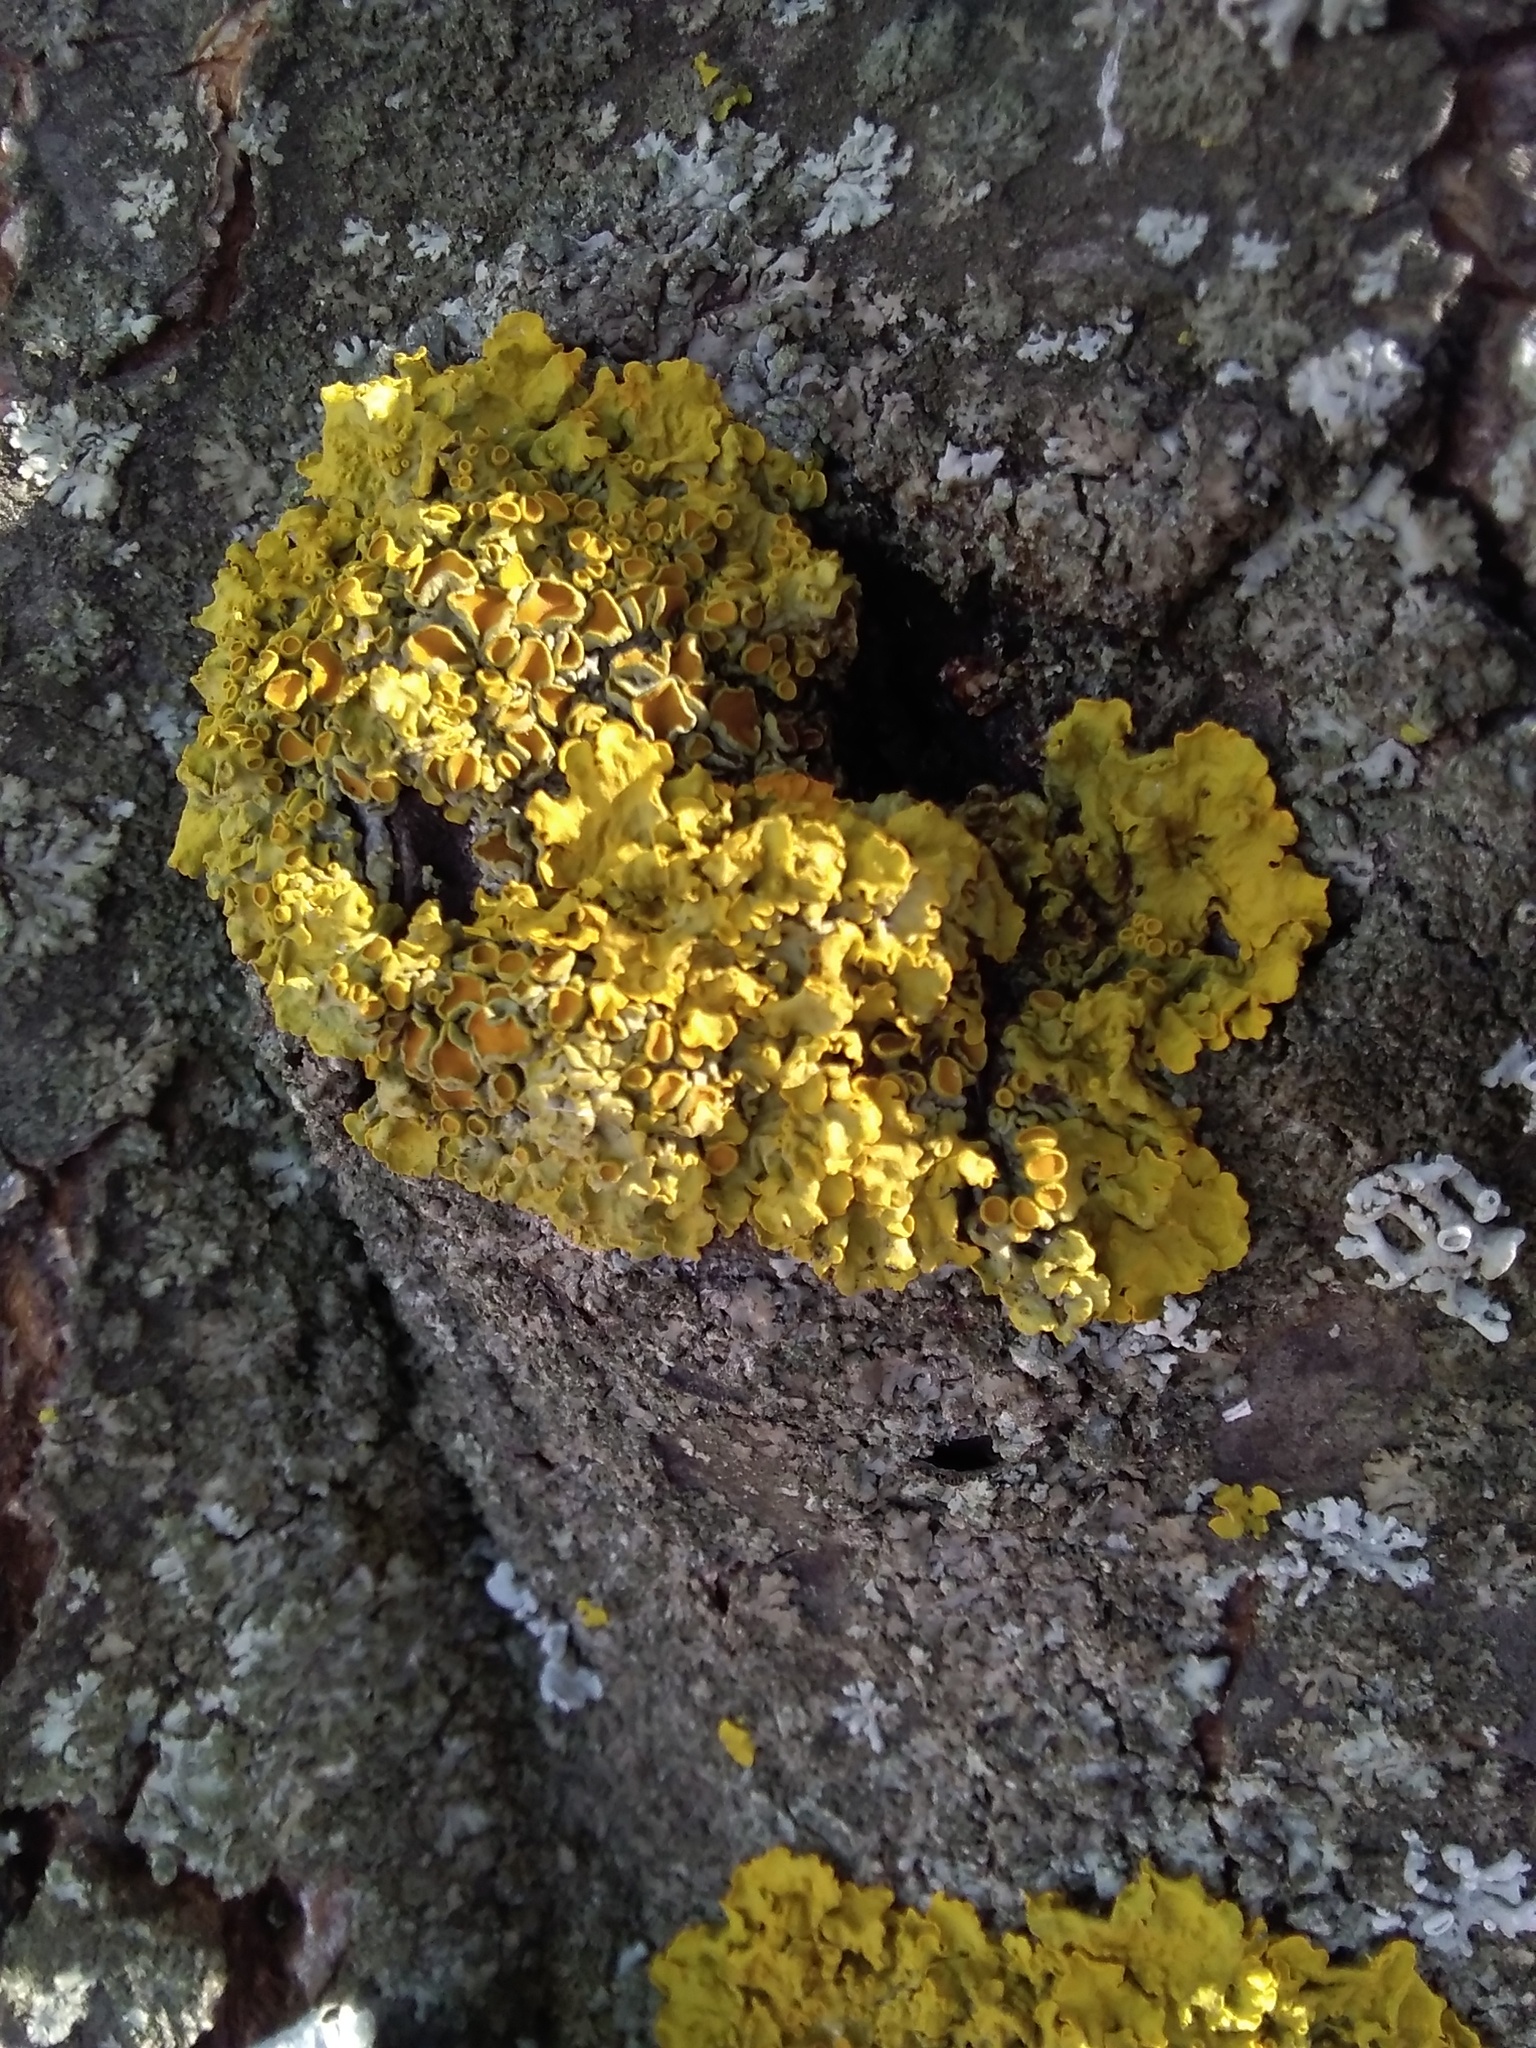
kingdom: Fungi
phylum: Ascomycota
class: Lecanoromycetes
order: Teloschistales
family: Teloschistaceae
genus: Xanthoria
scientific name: Xanthoria parietina
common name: Common orange lichen
